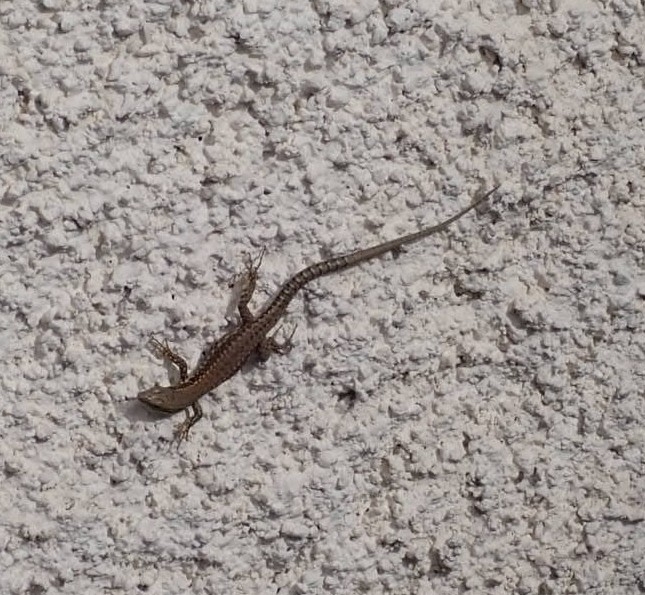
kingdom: Animalia
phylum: Chordata
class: Squamata
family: Lacertidae
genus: Podarcis
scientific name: Podarcis muralis
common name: Common wall lizard
